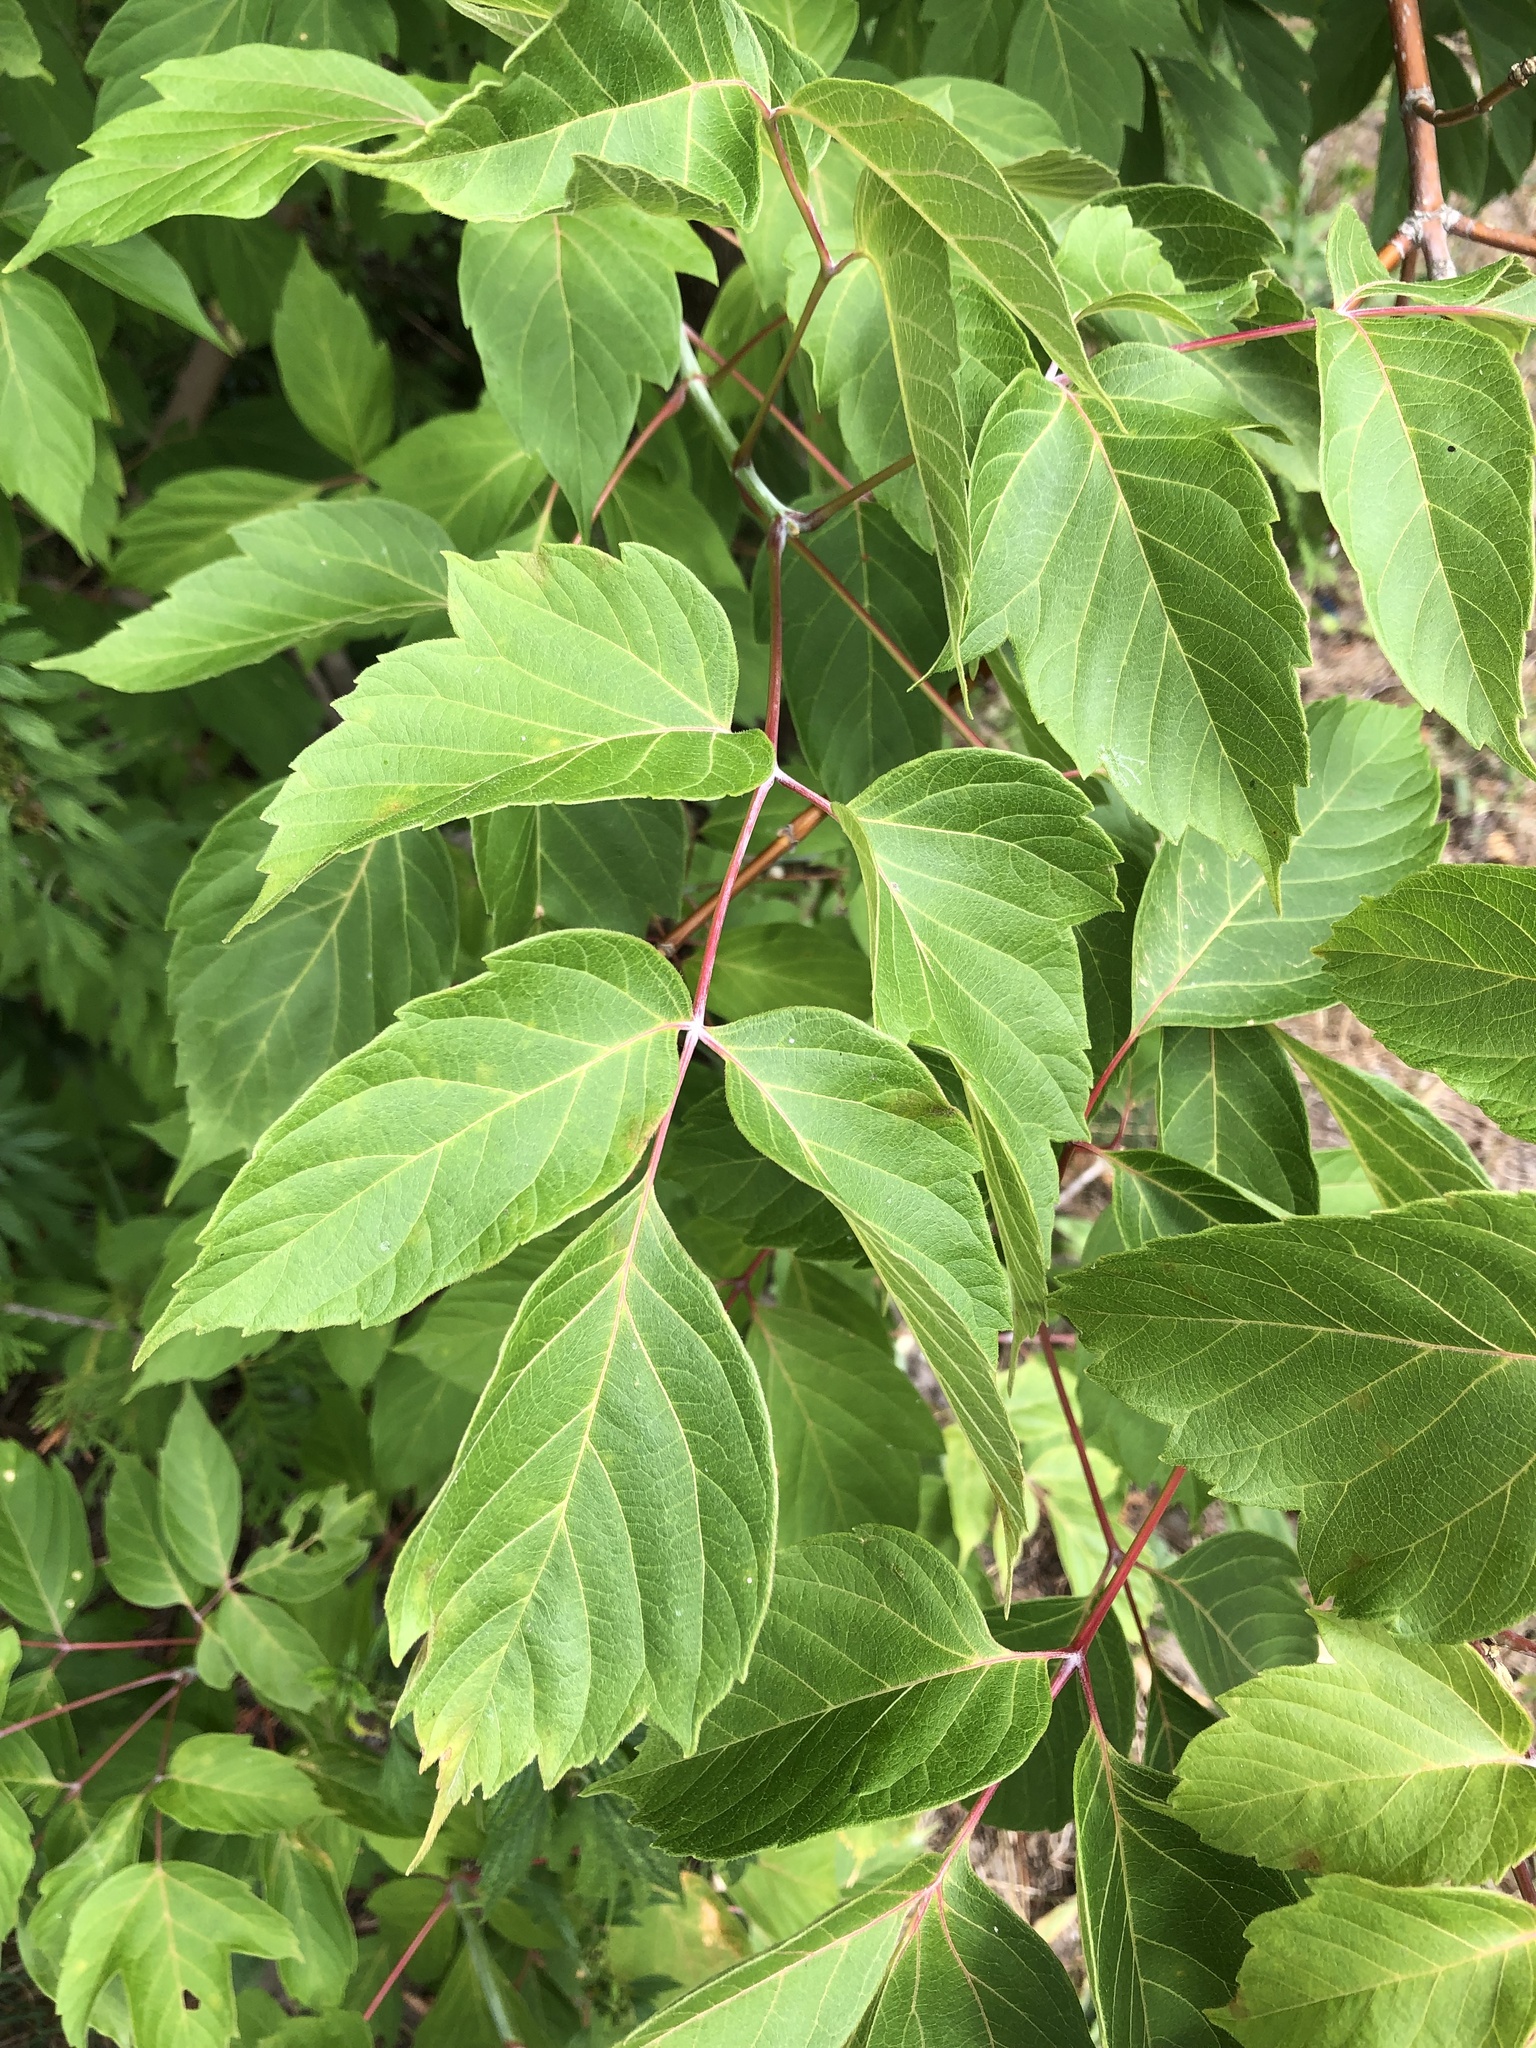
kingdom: Plantae
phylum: Tracheophyta
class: Magnoliopsida
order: Sapindales
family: Sapindaceae
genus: Acer
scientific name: Acer negundo
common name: Ashleaf maple
